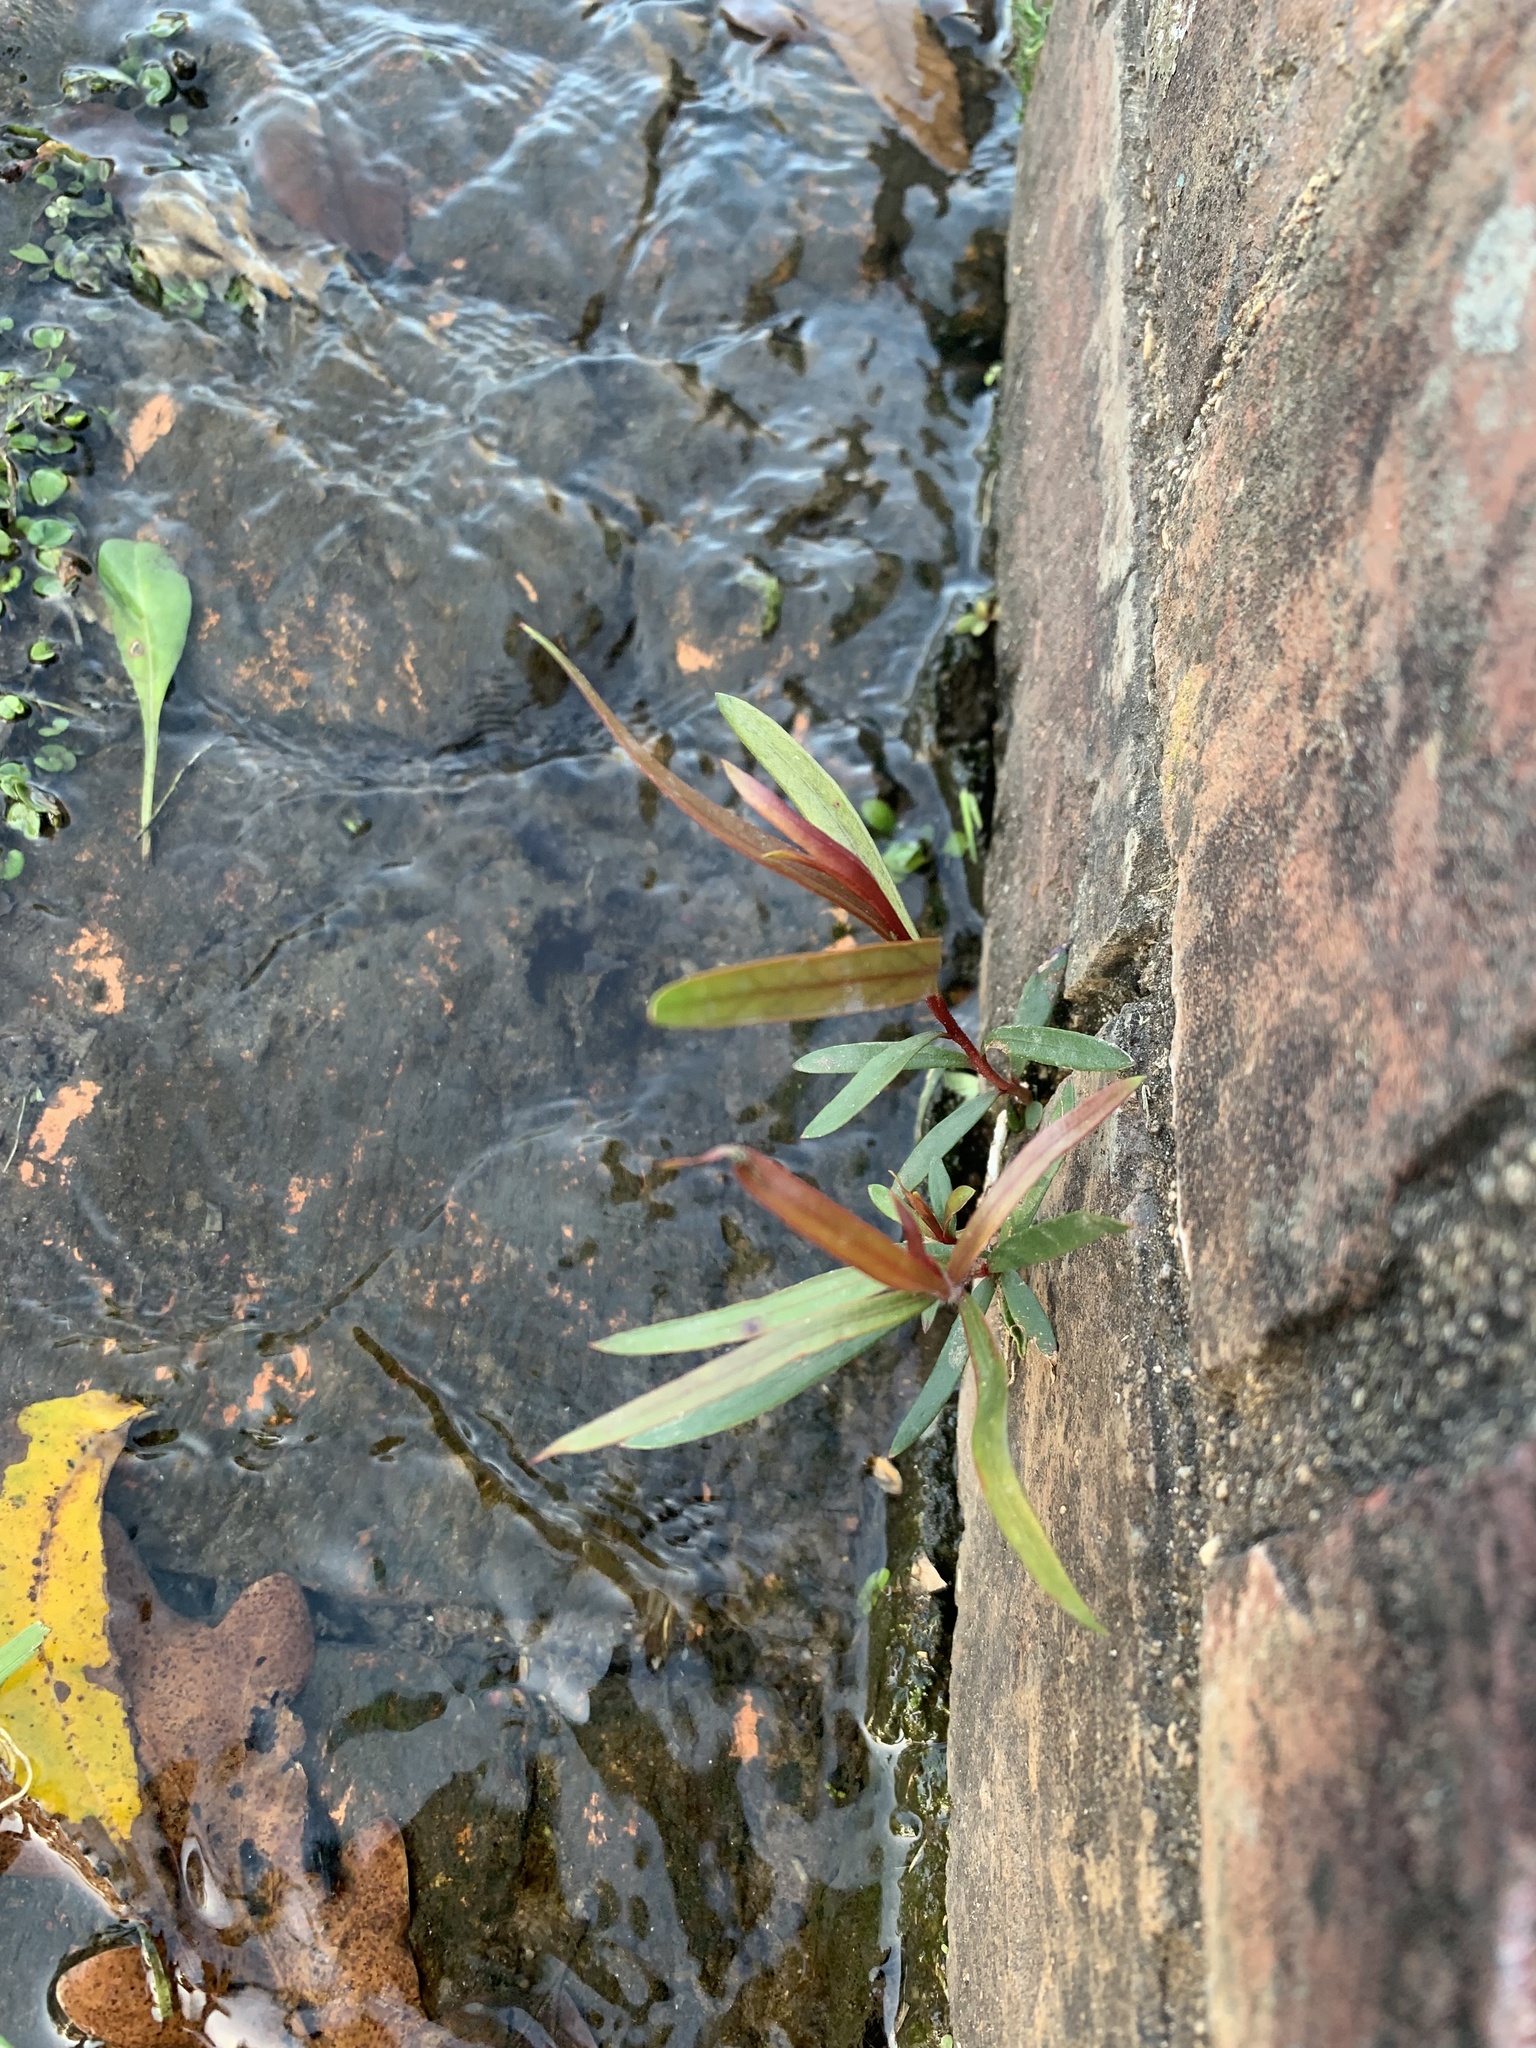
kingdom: Plantae
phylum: Tracheophyta
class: Magnoliopsida
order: Myrtales
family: Myrtaceae
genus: Callistemon
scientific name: Callistemon viminalis
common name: Drooping bottlebrush
